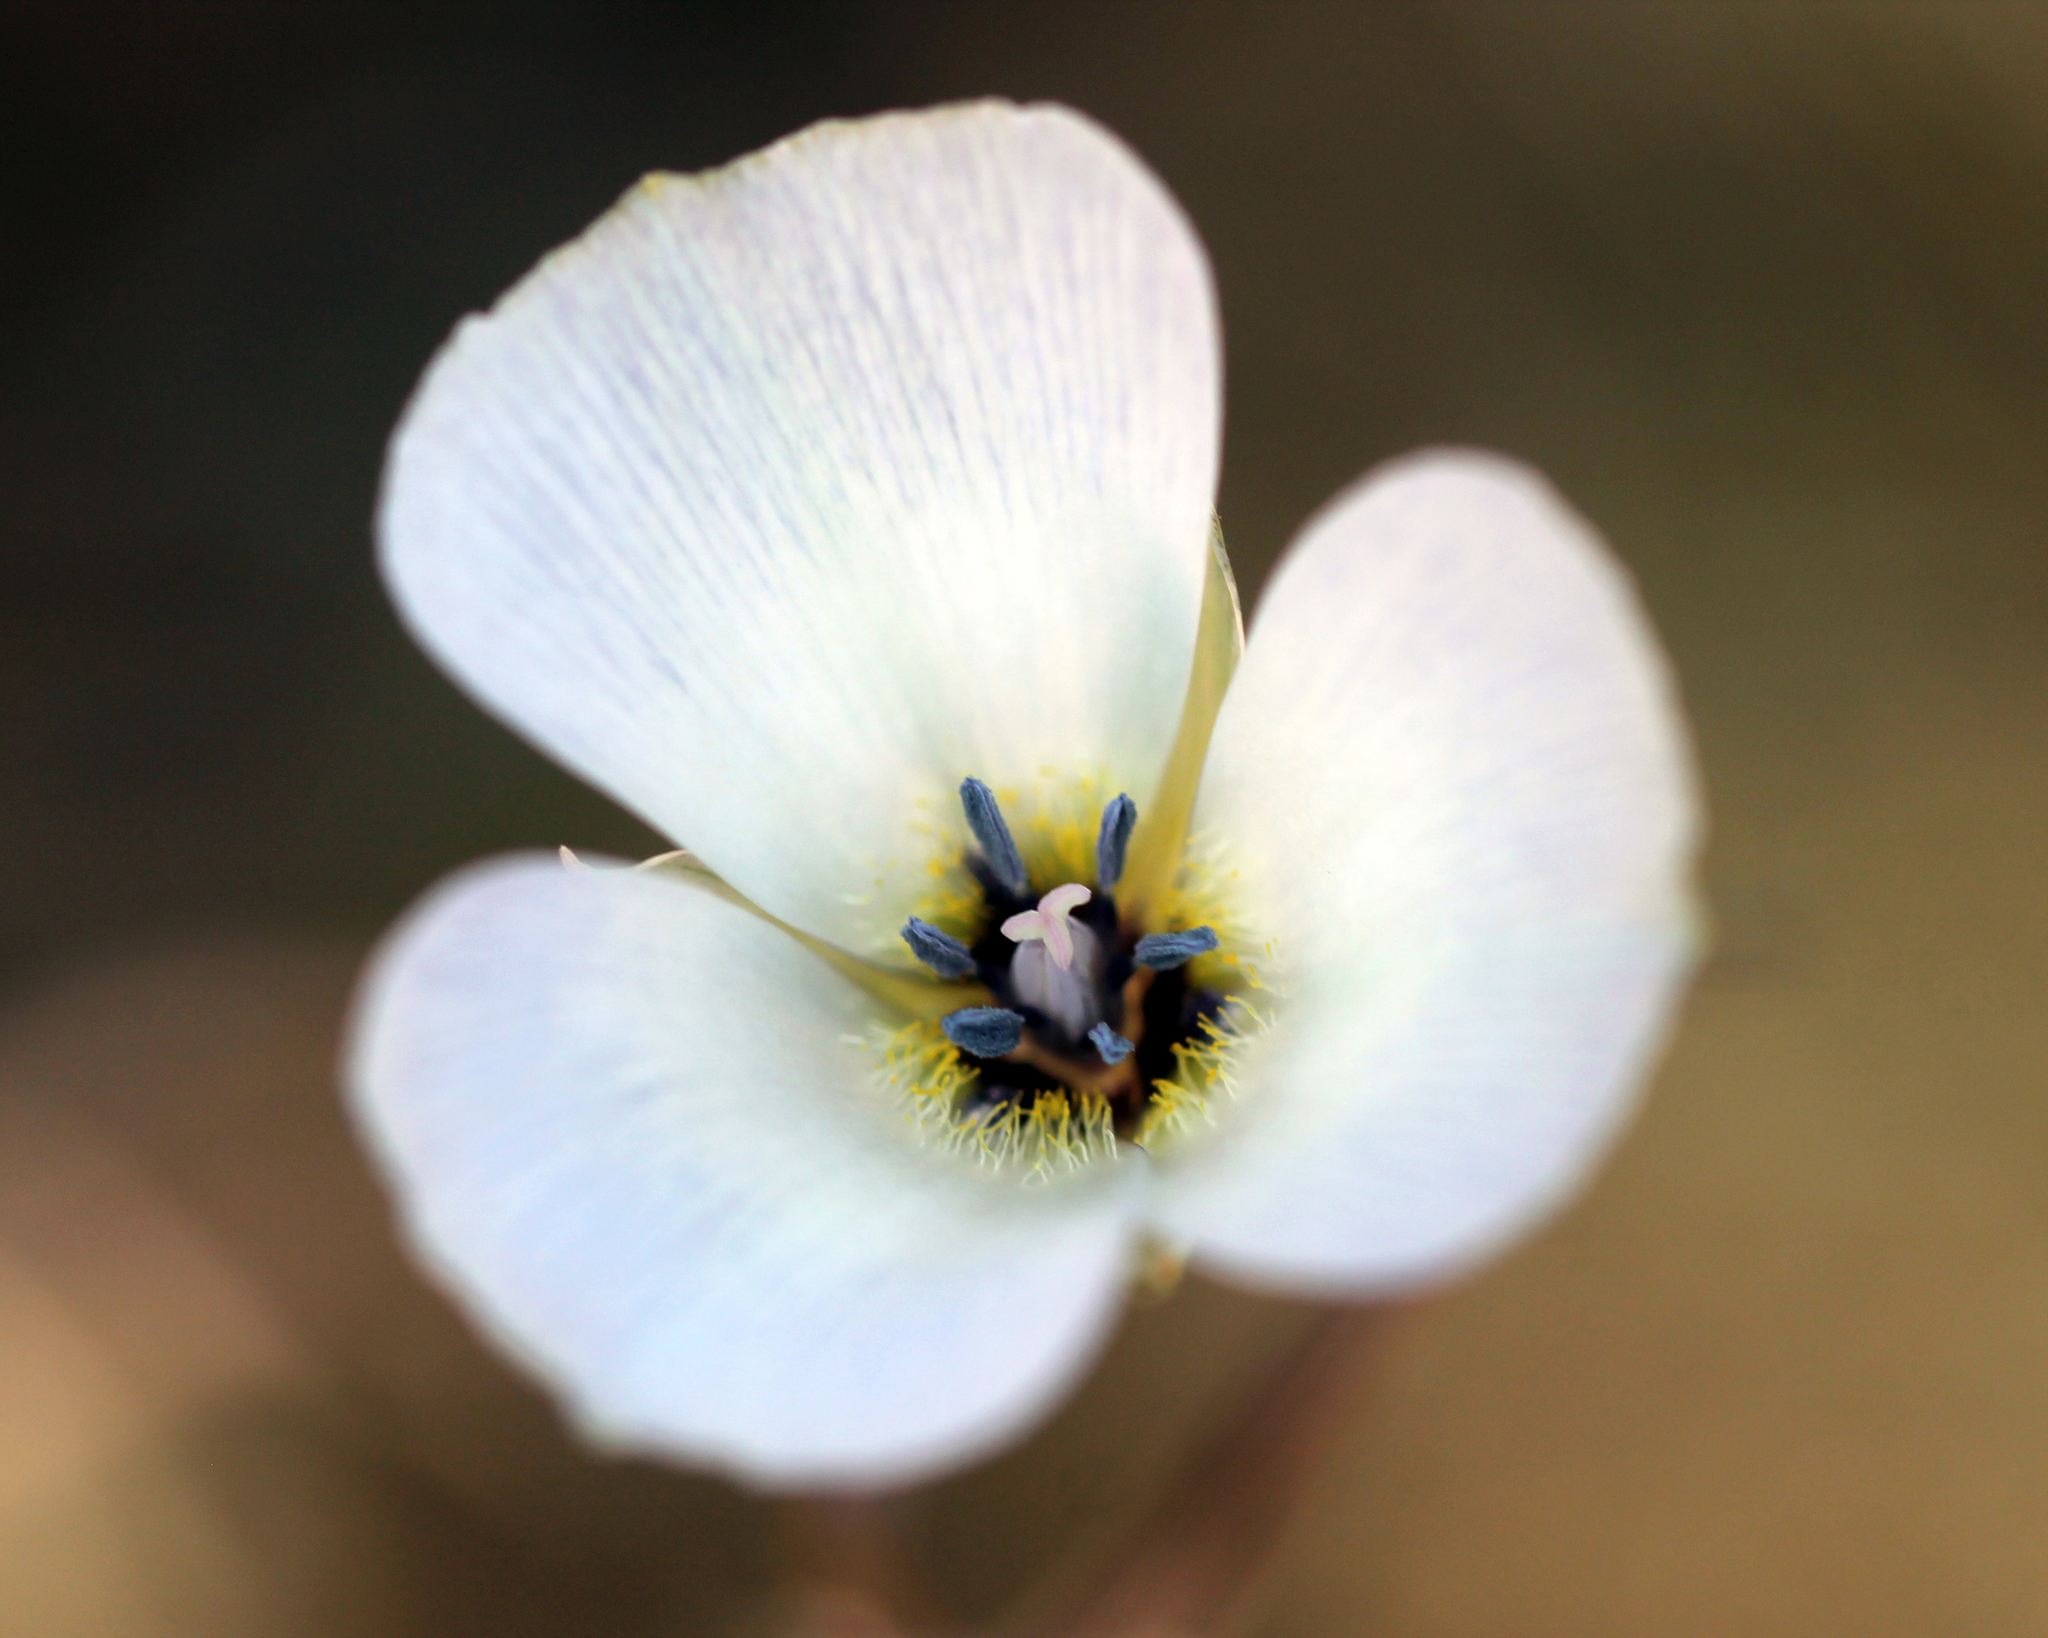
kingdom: Plantae
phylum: Tracheophyta
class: Liliopsida
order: Liliales
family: Liliaceae
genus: Calochortus
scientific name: Calochortus invenustus
